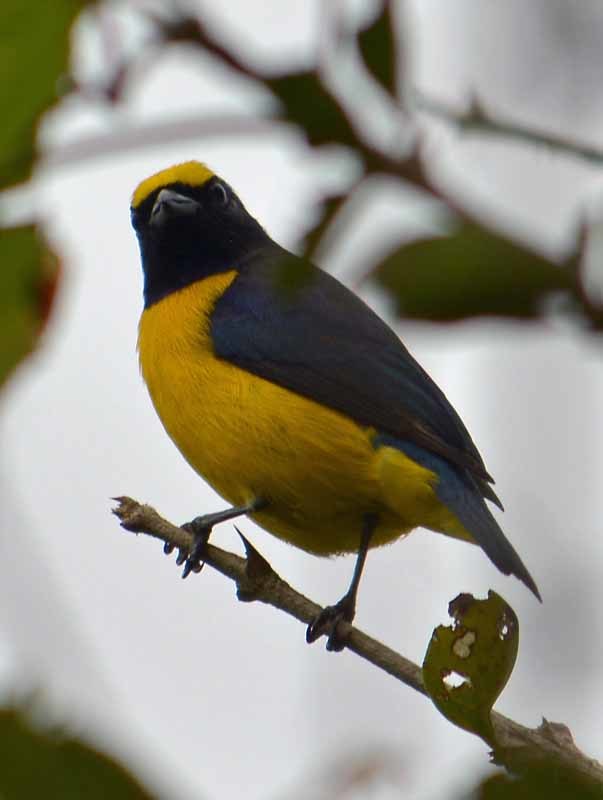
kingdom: Animalia
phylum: Chordata
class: Aves
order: Passeriformes
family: Fringillidae
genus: Euphonia
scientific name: Euphonia affinis
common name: Scrub euphonia
